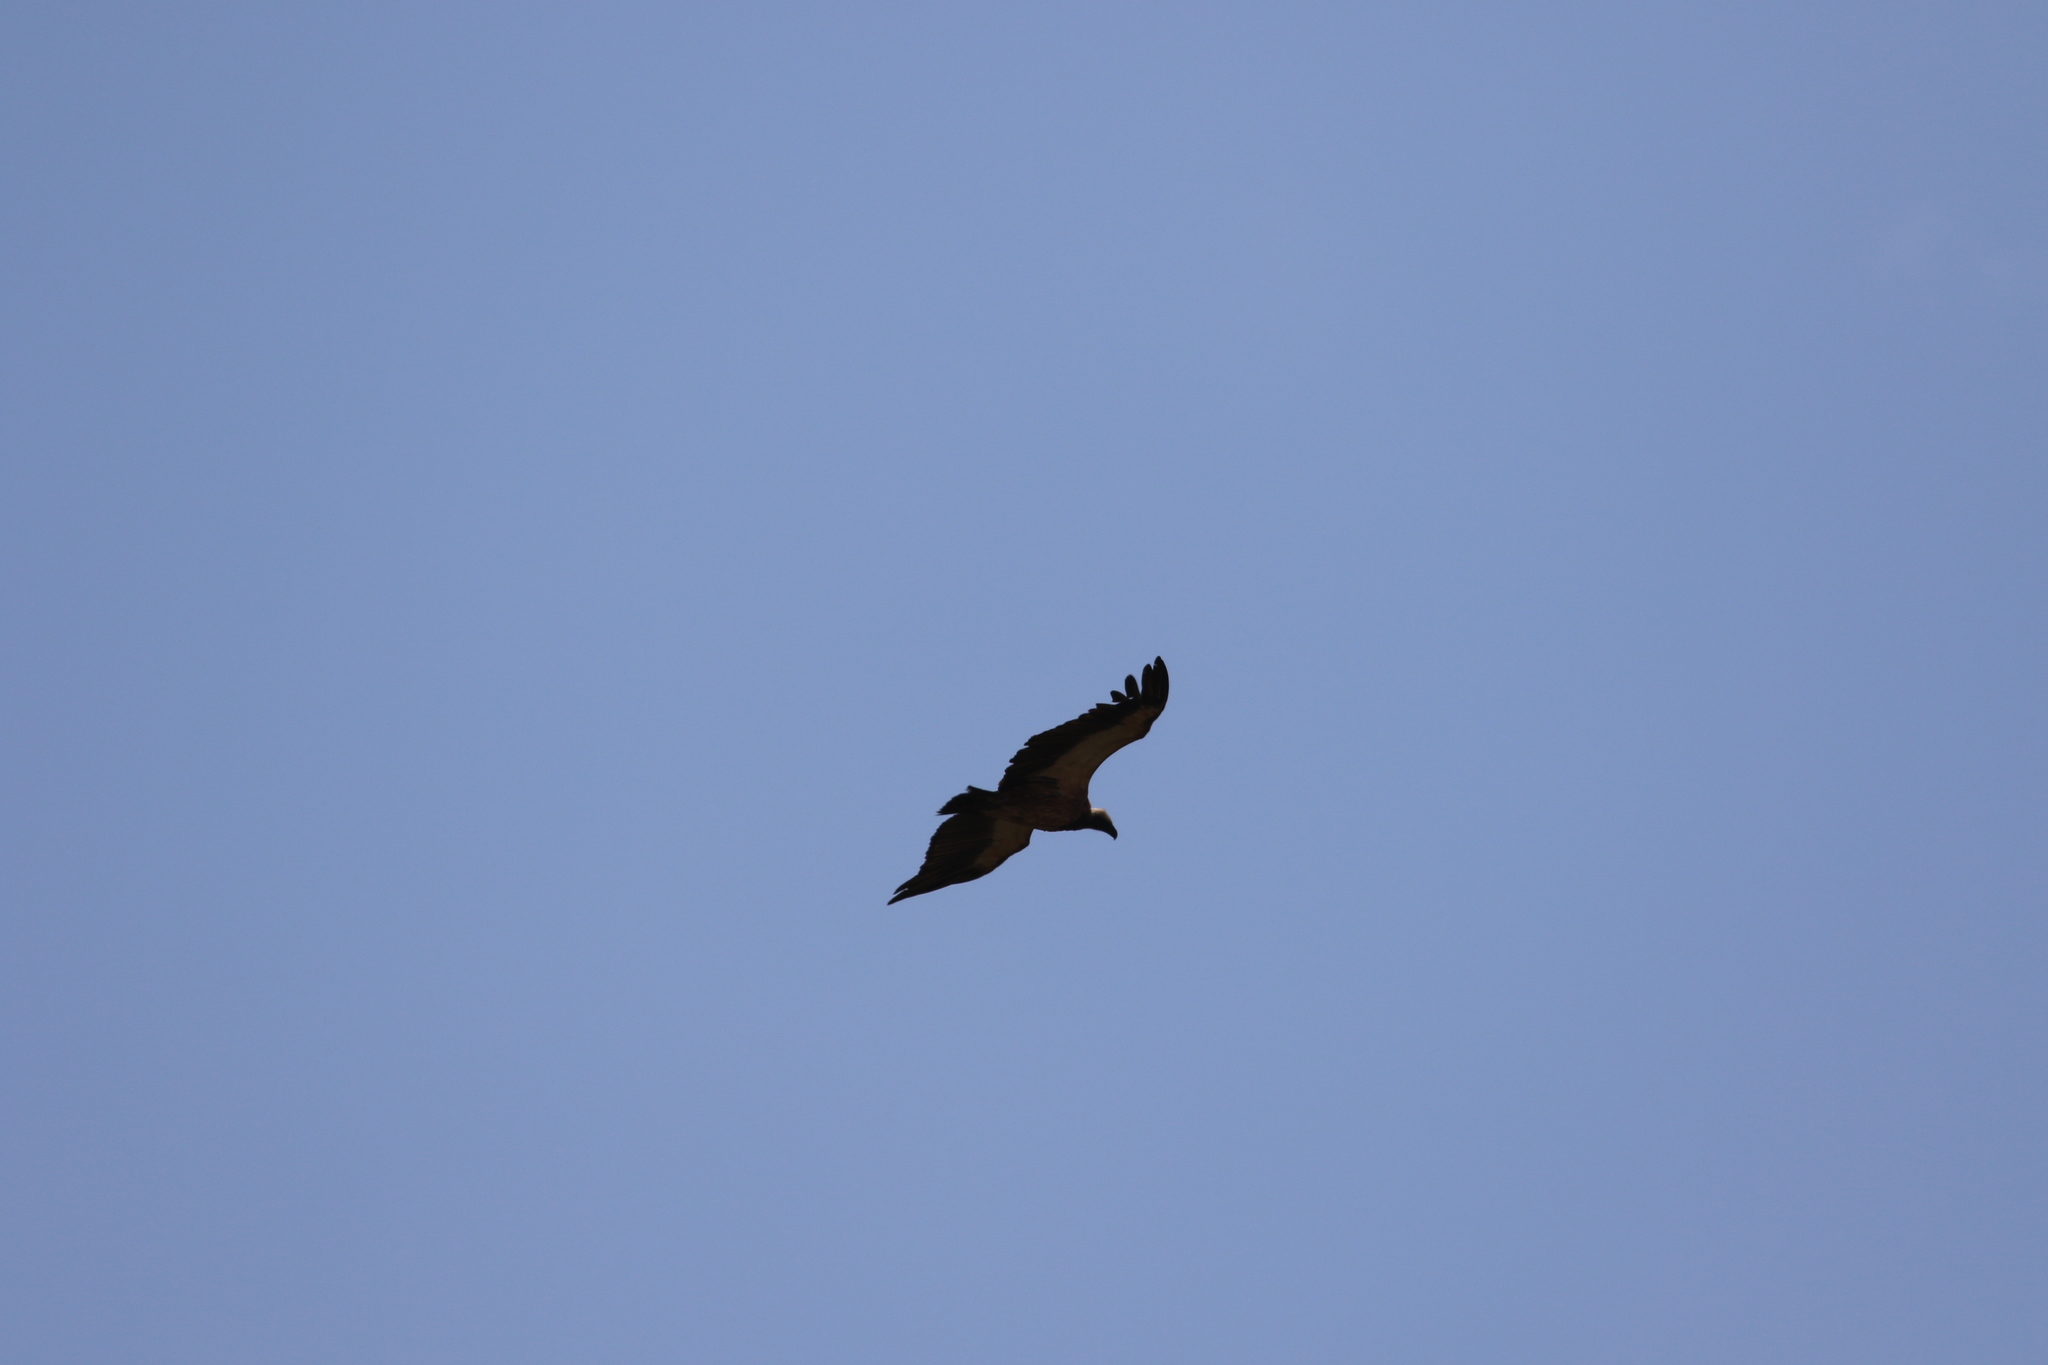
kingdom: Animalia
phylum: Chordata
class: Aves
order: Accipitriformes
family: Accipitridae
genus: Gyps
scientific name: Gyps africanus
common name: White-backed vulture
